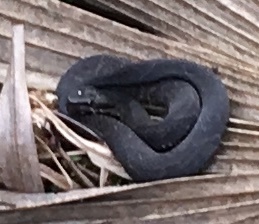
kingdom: Animalia
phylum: Chordata
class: Squamata
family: Viperidae
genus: Agkistrodon
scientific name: Agkistrodon piscivorus
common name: Cottonmouth
